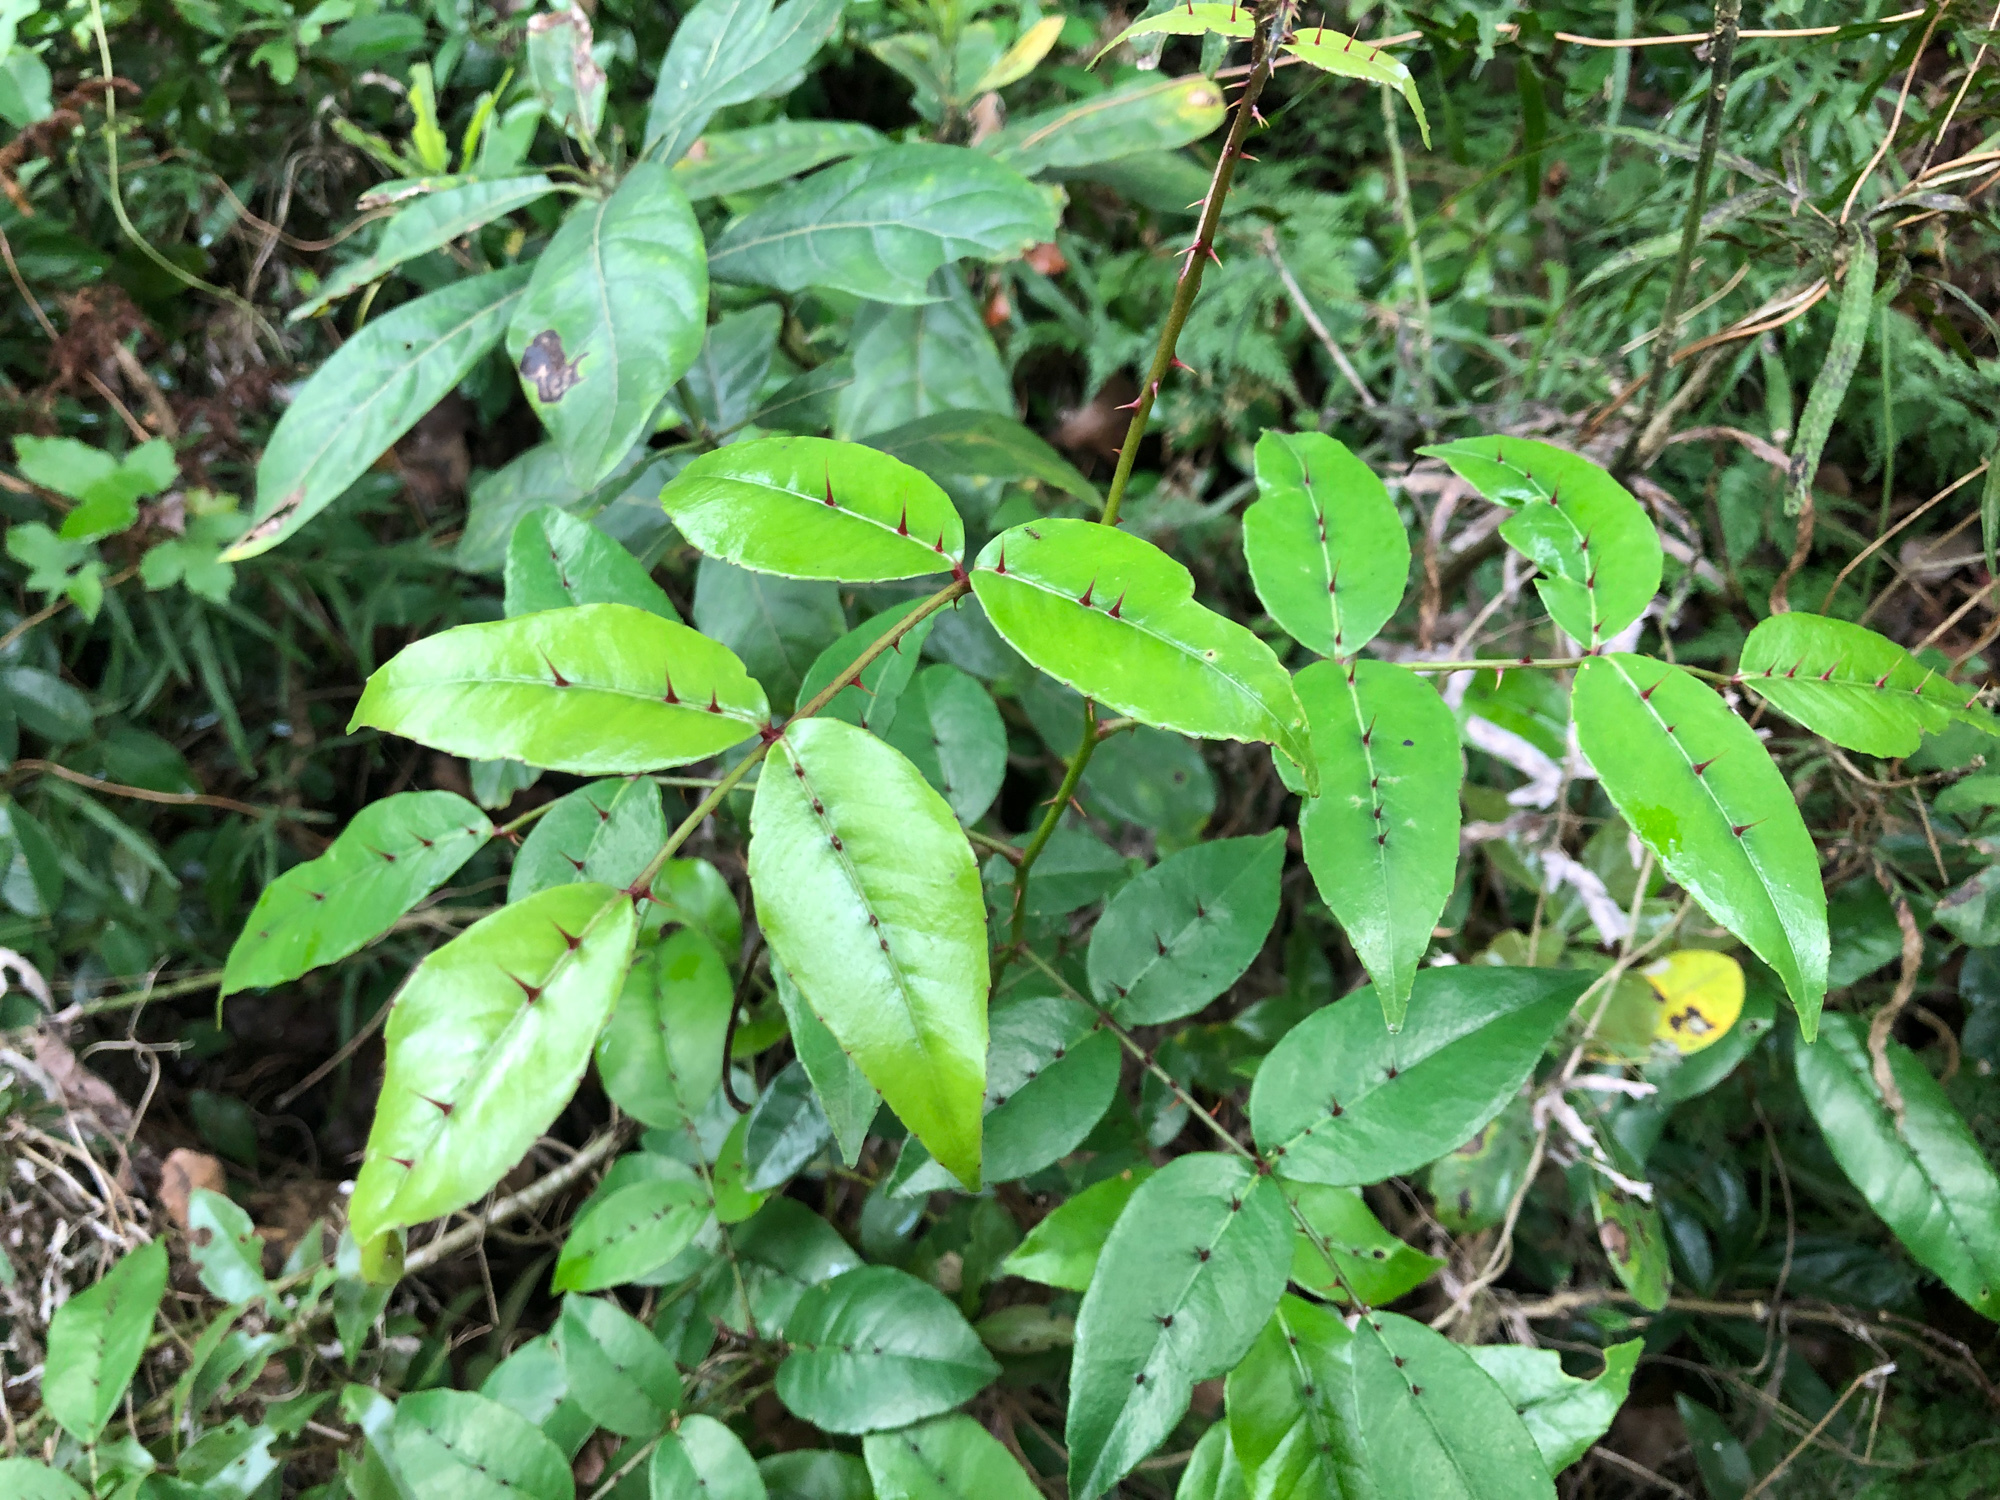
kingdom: Plantae
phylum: Tracheophyta
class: Magnoliopsida
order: Sapindales
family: Rutaceae
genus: Zanthoxylum
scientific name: Zanthoxylum nitidum
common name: Shiny-leaf prickly-ash
